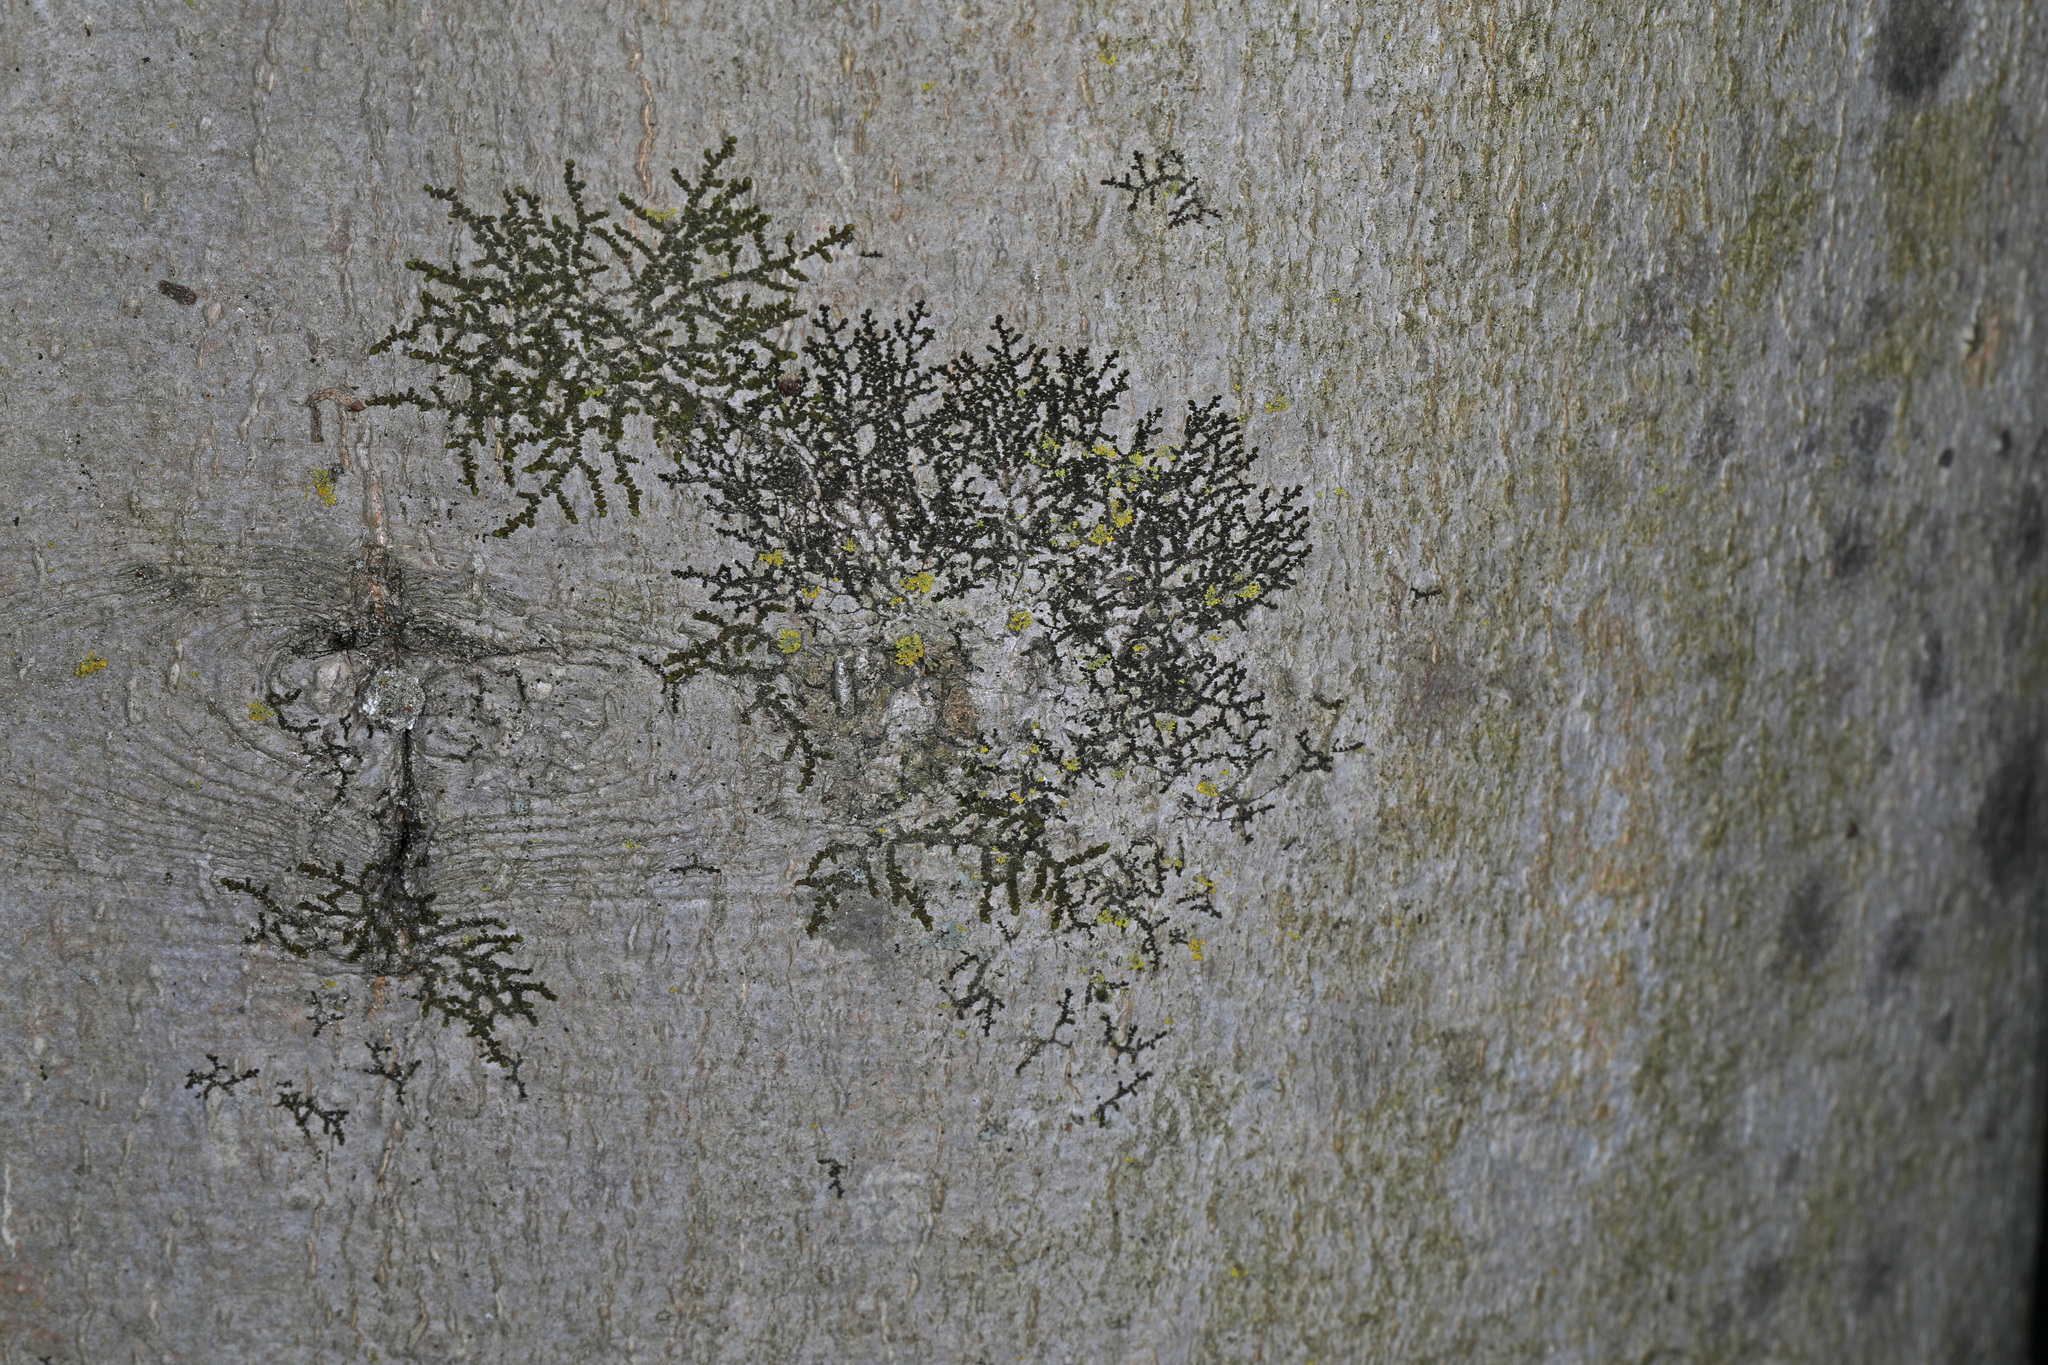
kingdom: Plantae
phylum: Marchantiophyta
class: Jungermanniopsida
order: Porellales
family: Frullaniaceae
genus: Frullania
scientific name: Frullania eboracensis
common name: New york scalewort
